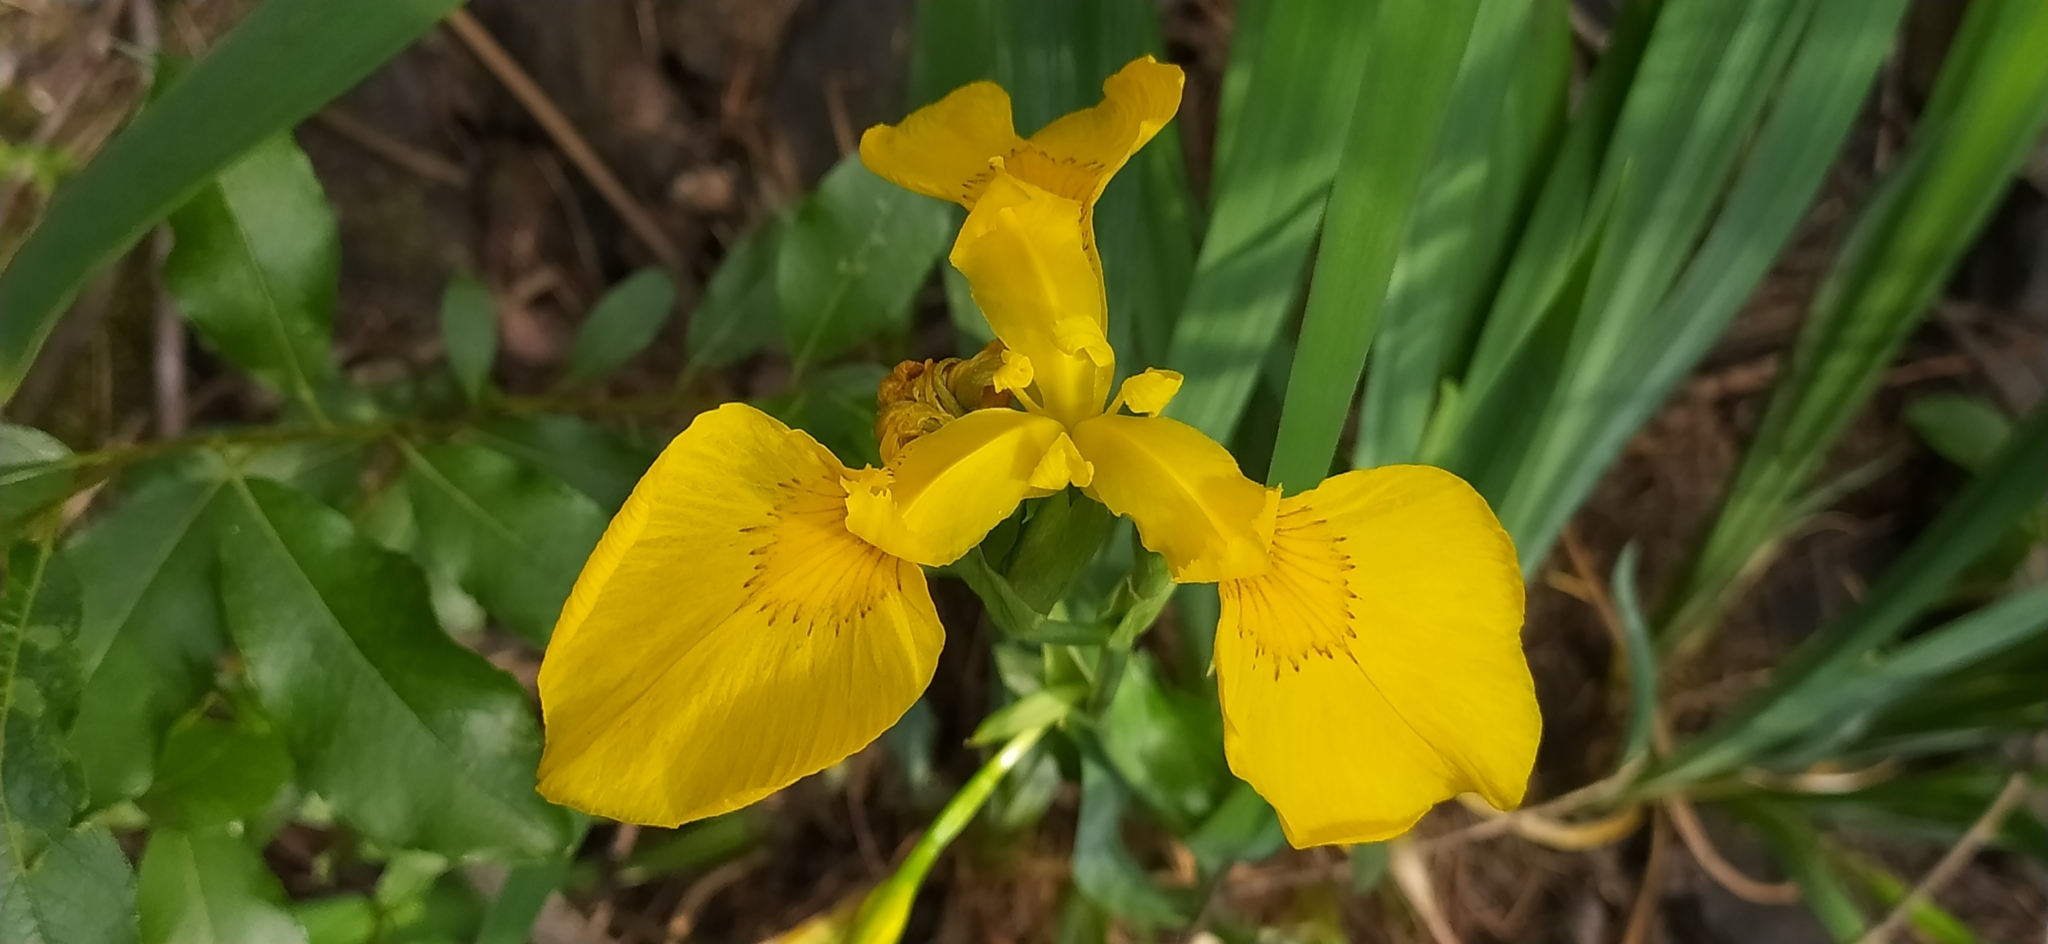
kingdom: Plantae
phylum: Tracheophyta
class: Liliopsida
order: Asparagales
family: Iridaceae
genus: Iris
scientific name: Iris pseudacorus
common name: Yellow flag
